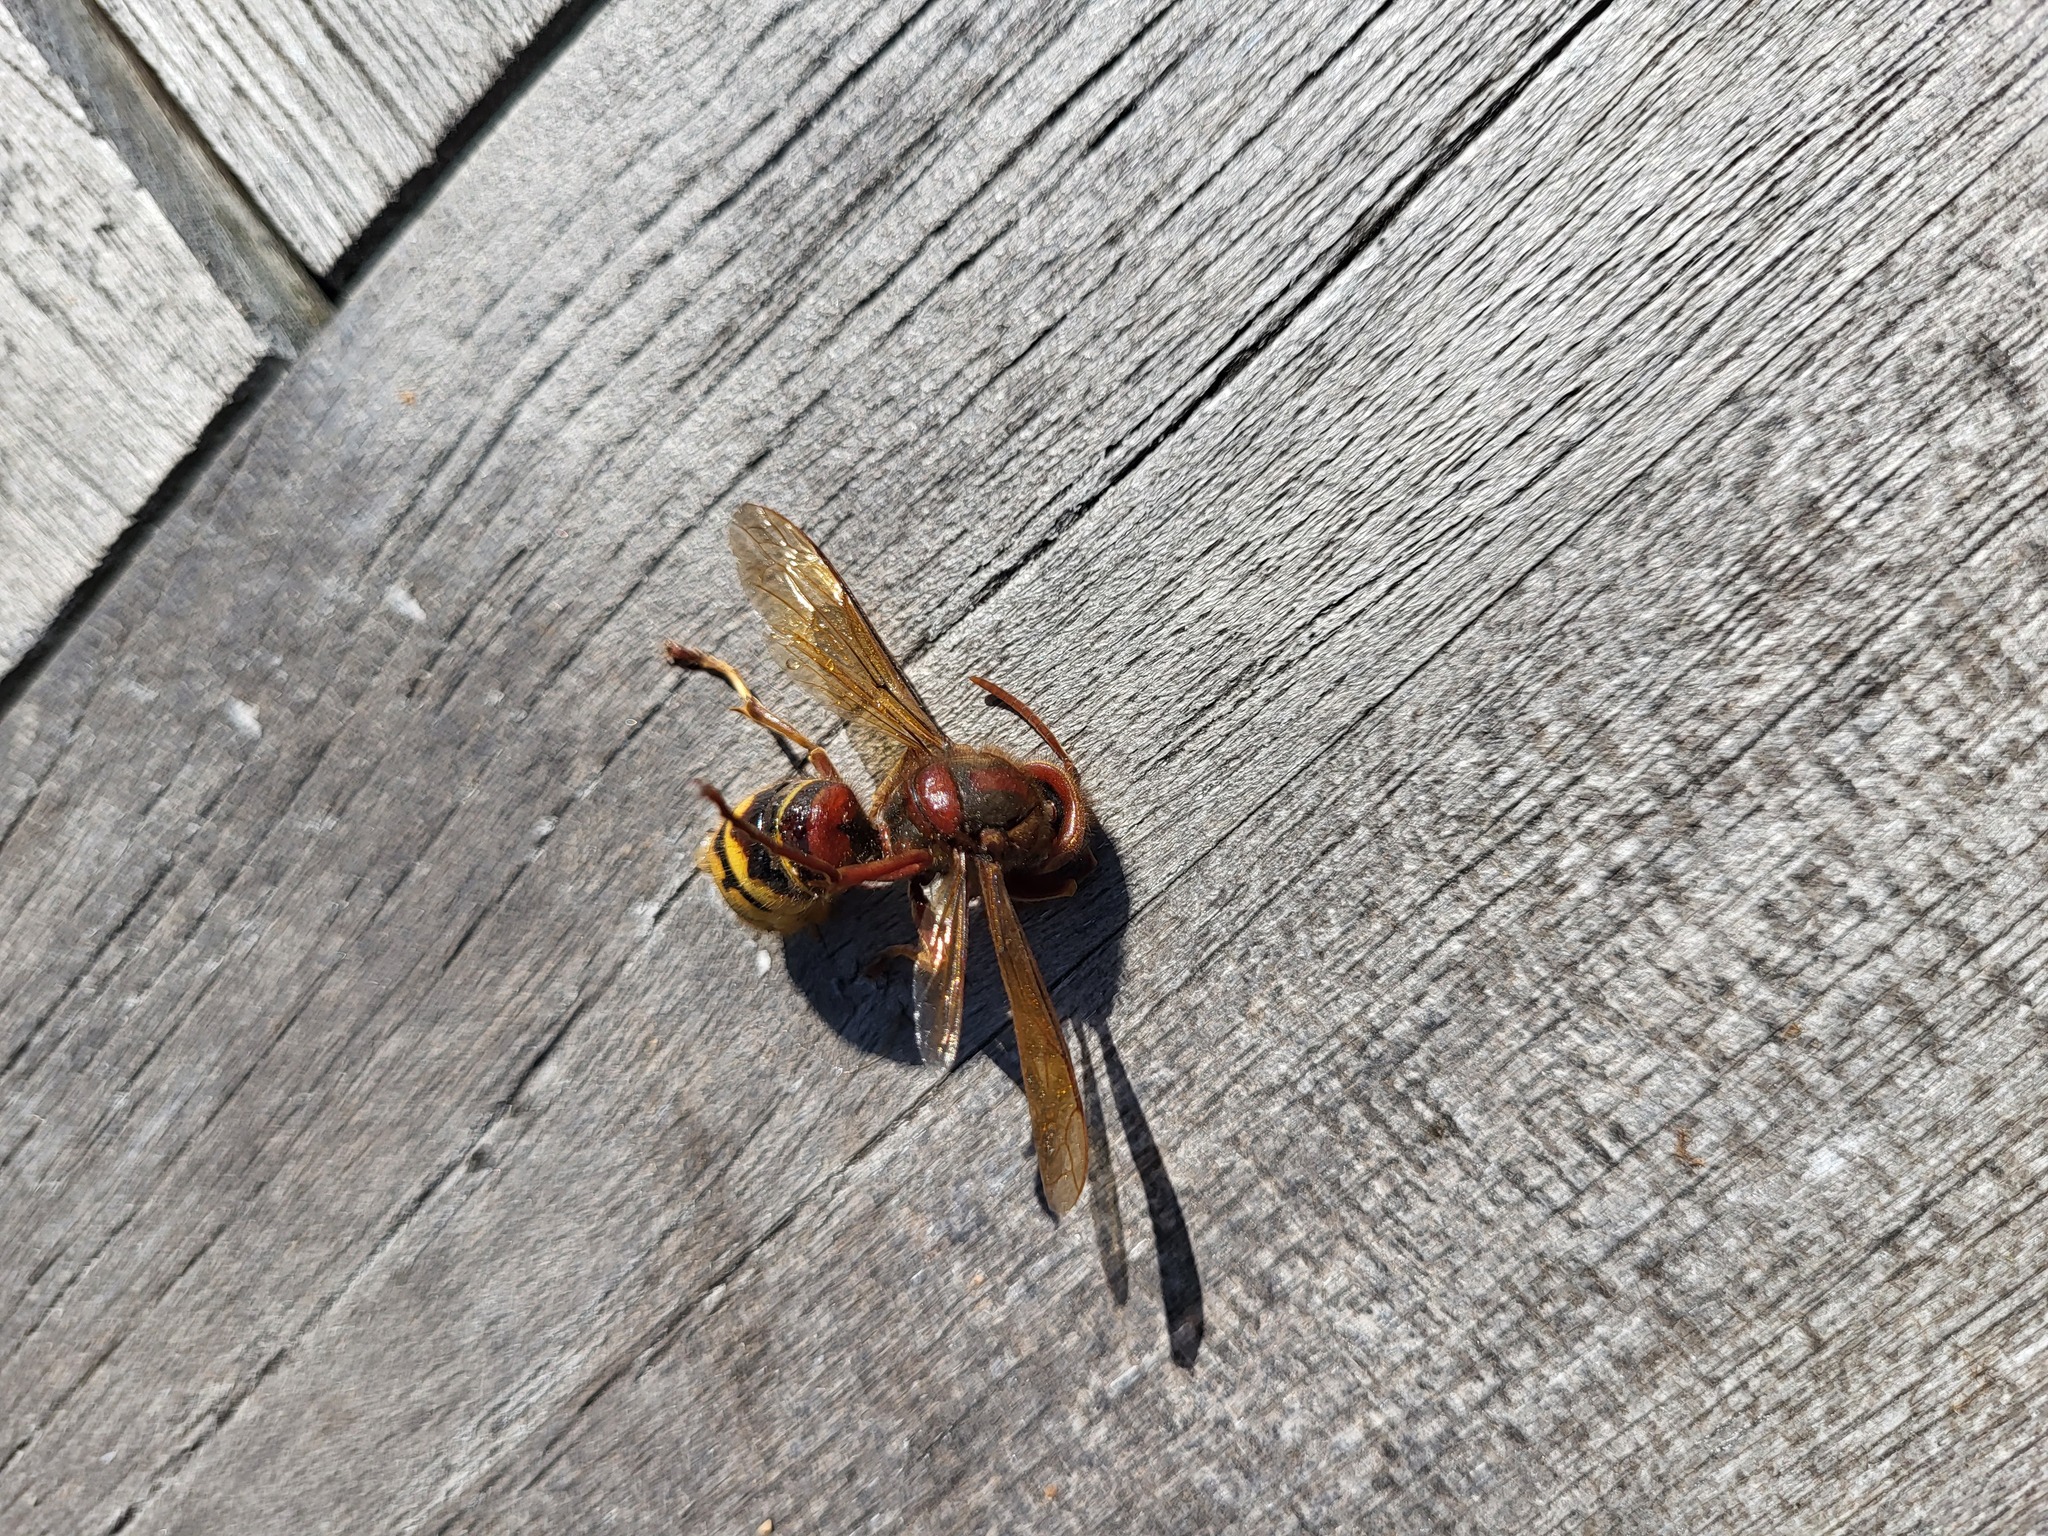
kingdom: Animalia
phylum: Arthropoda
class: Insecta
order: Hymenoptera
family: Vespidae
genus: Vespa
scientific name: Vespa crabro
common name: Hornet
